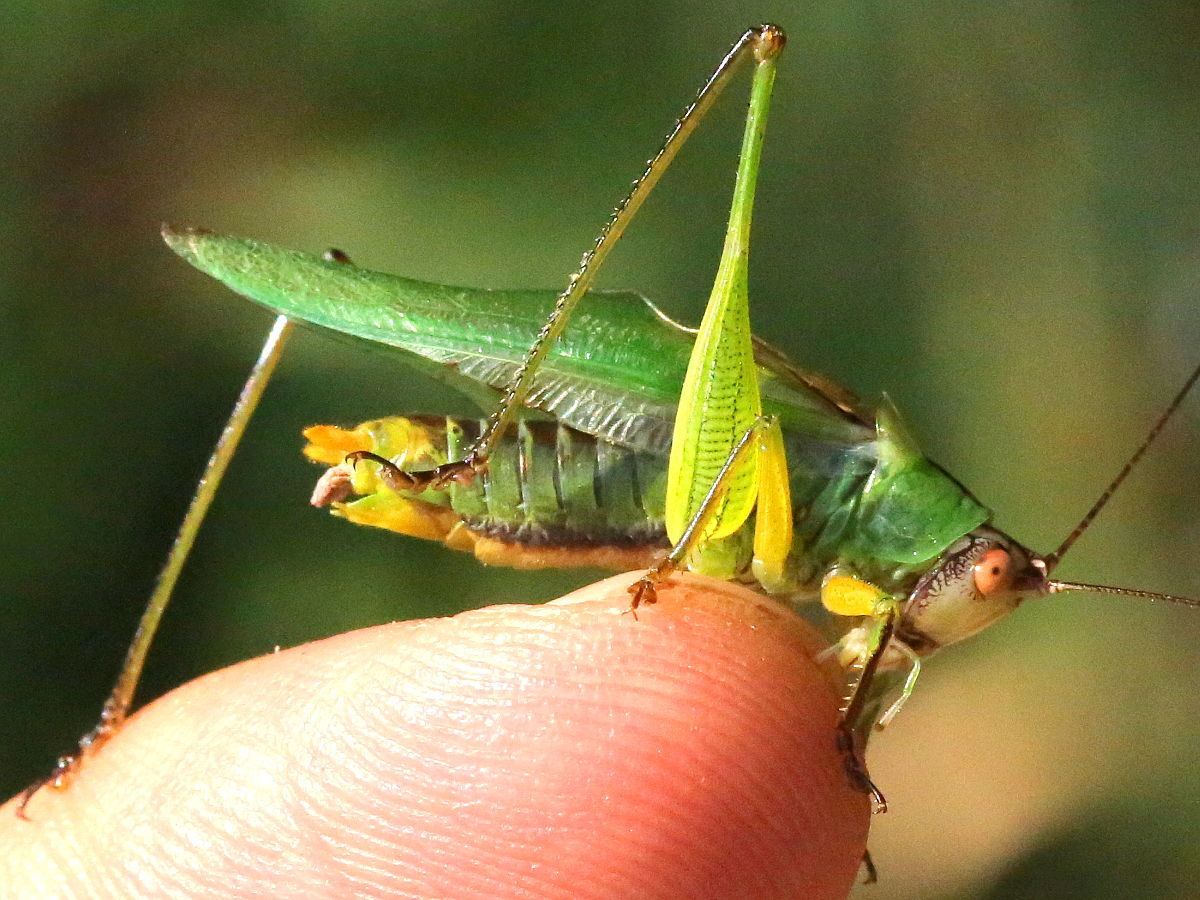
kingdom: Animalia
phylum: Arthropoda
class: Insecta
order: Orthoptera
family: Tettigoniidae
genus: Orchelimum
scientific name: Orchelimum nigripes
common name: Black-legged meadow katydid
